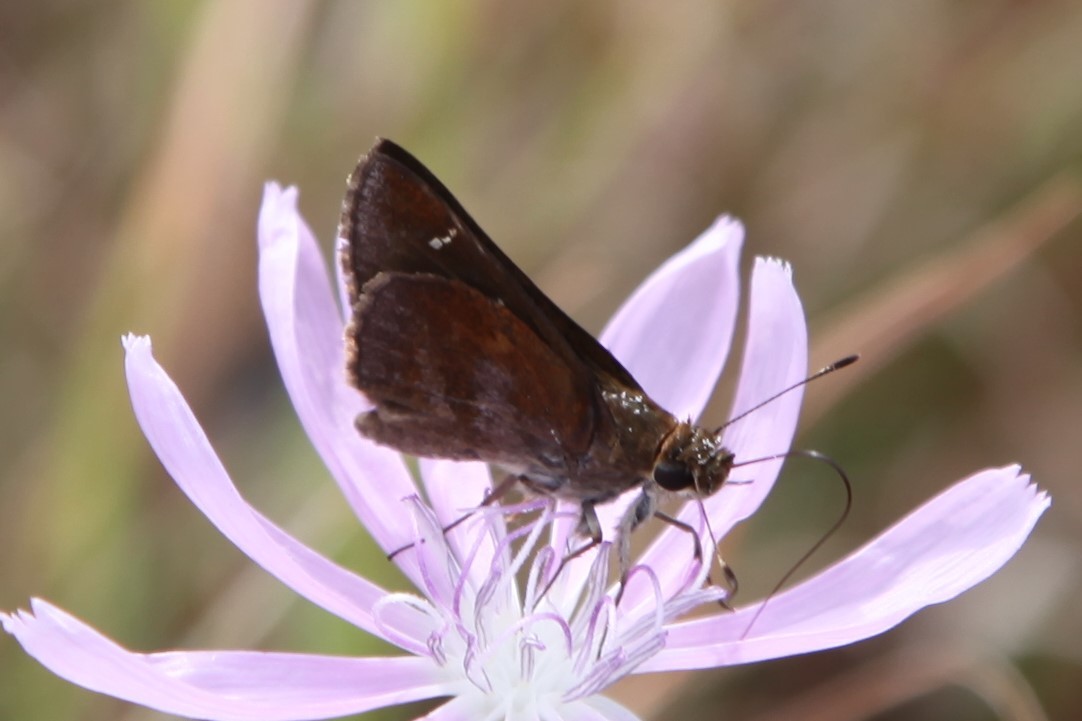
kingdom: Animalia
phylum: Arthropoda
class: Insecta
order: Lepidoptera
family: Hesperiidae
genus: Lerema
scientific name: Lerema accius
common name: Clouded skipper
